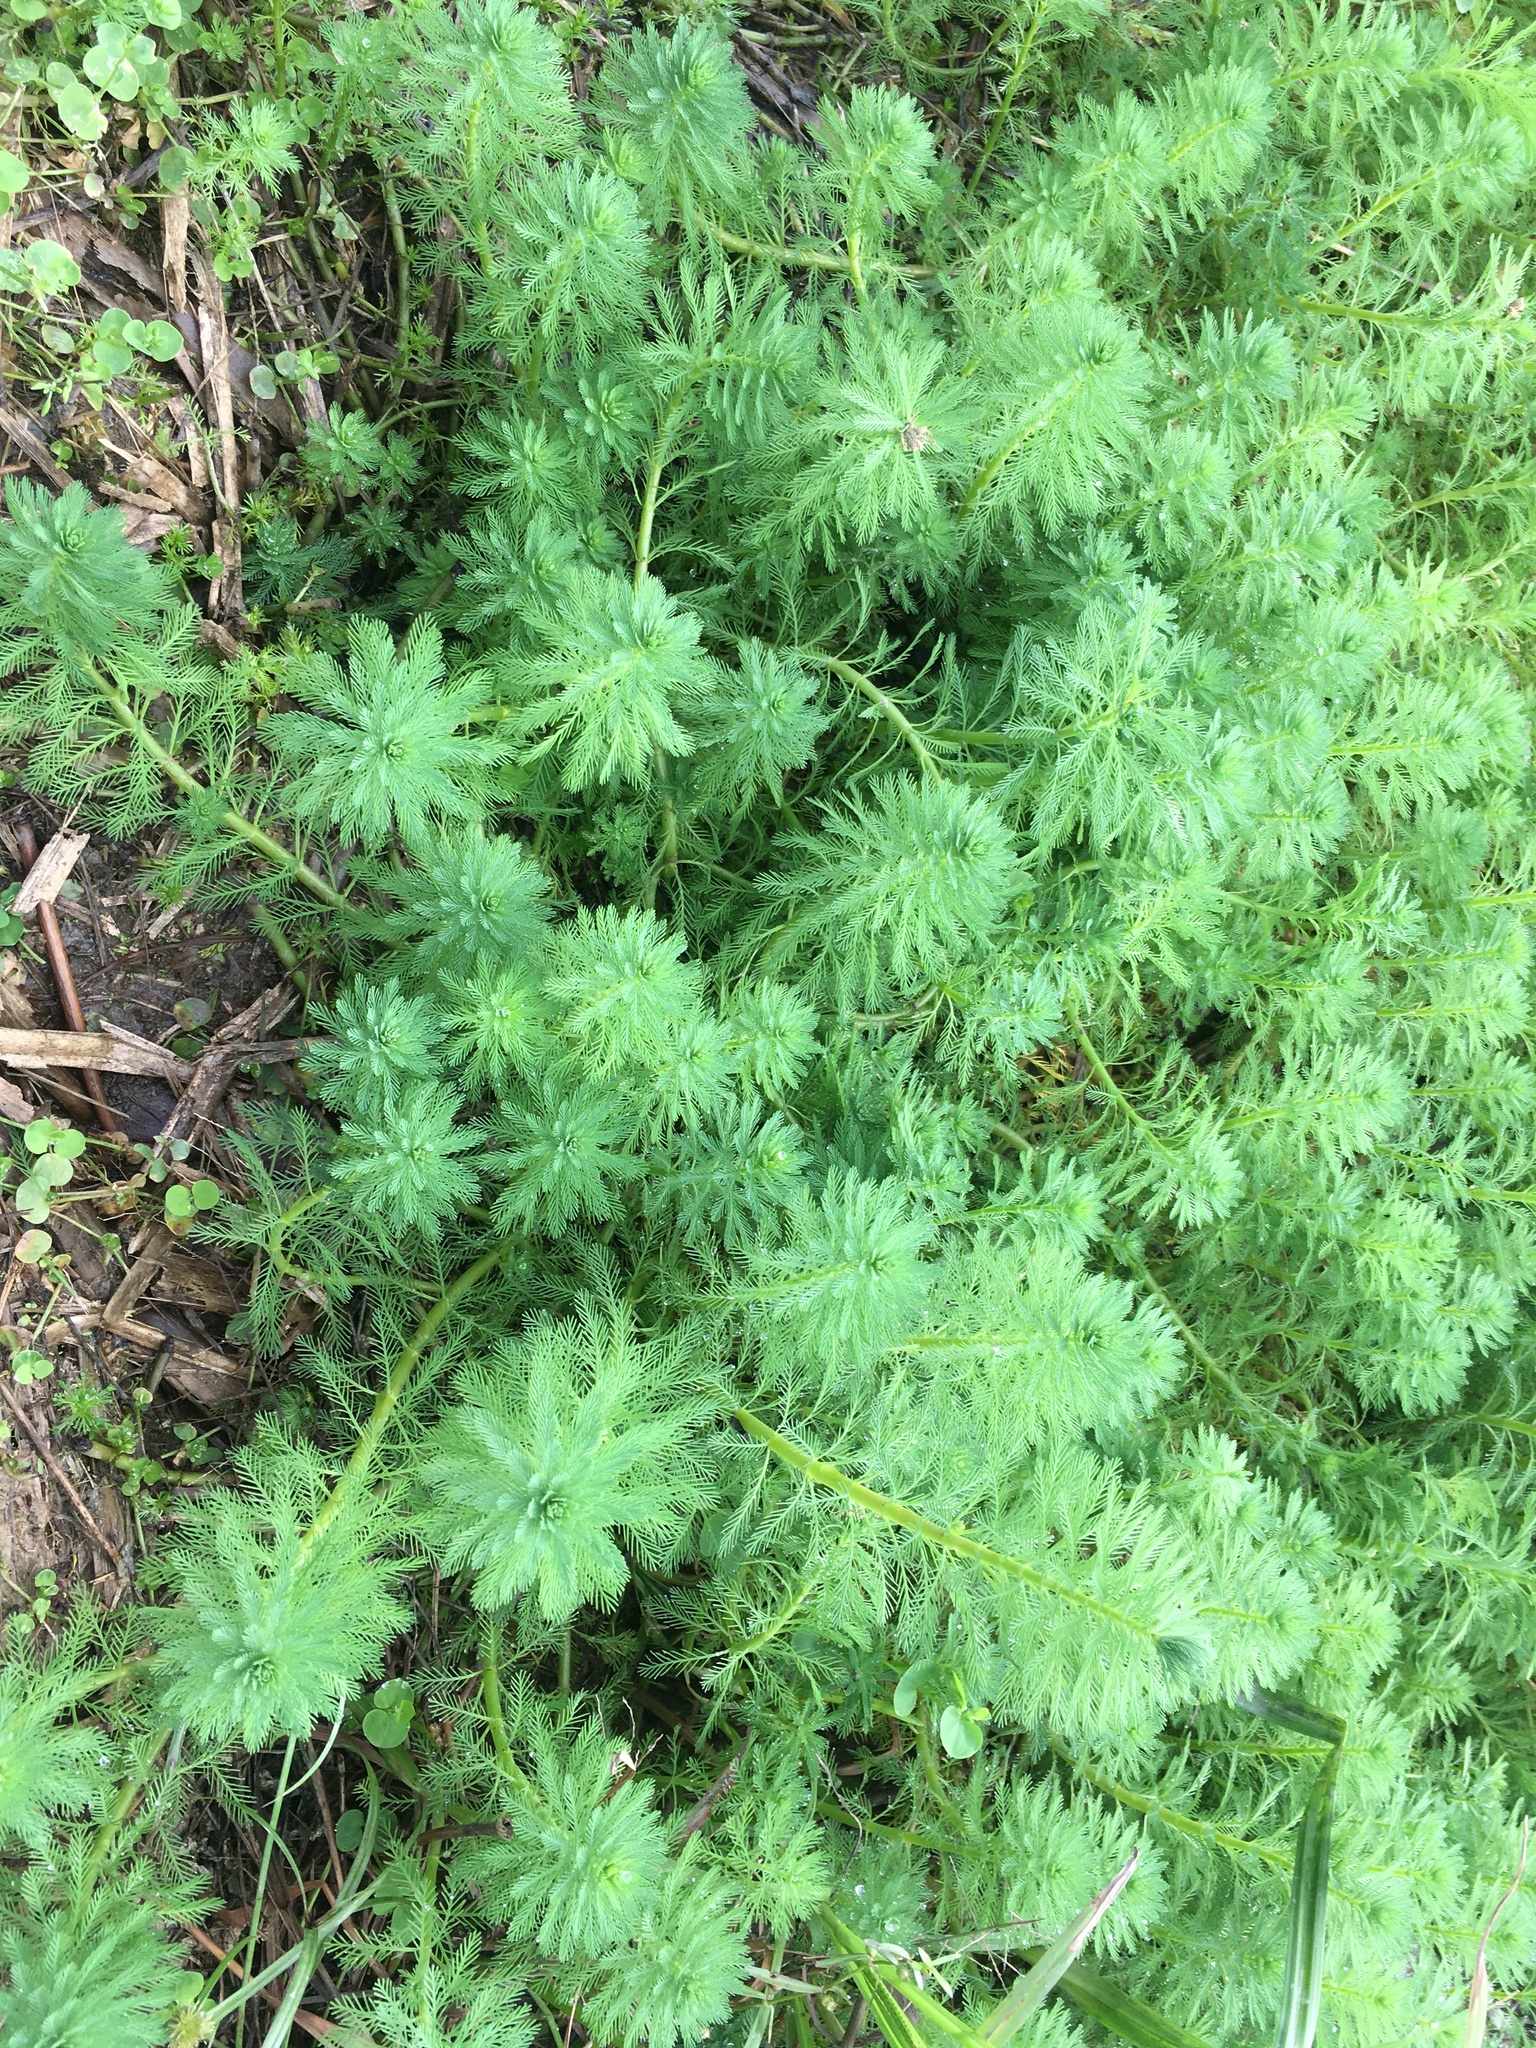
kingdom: Plantae
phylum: Tracheophyta
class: Magnoliopsida
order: Saxifragales
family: Haloragaceae
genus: Myriophyllum
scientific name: Myriophyllum aquaticum
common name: Parrot's feather
